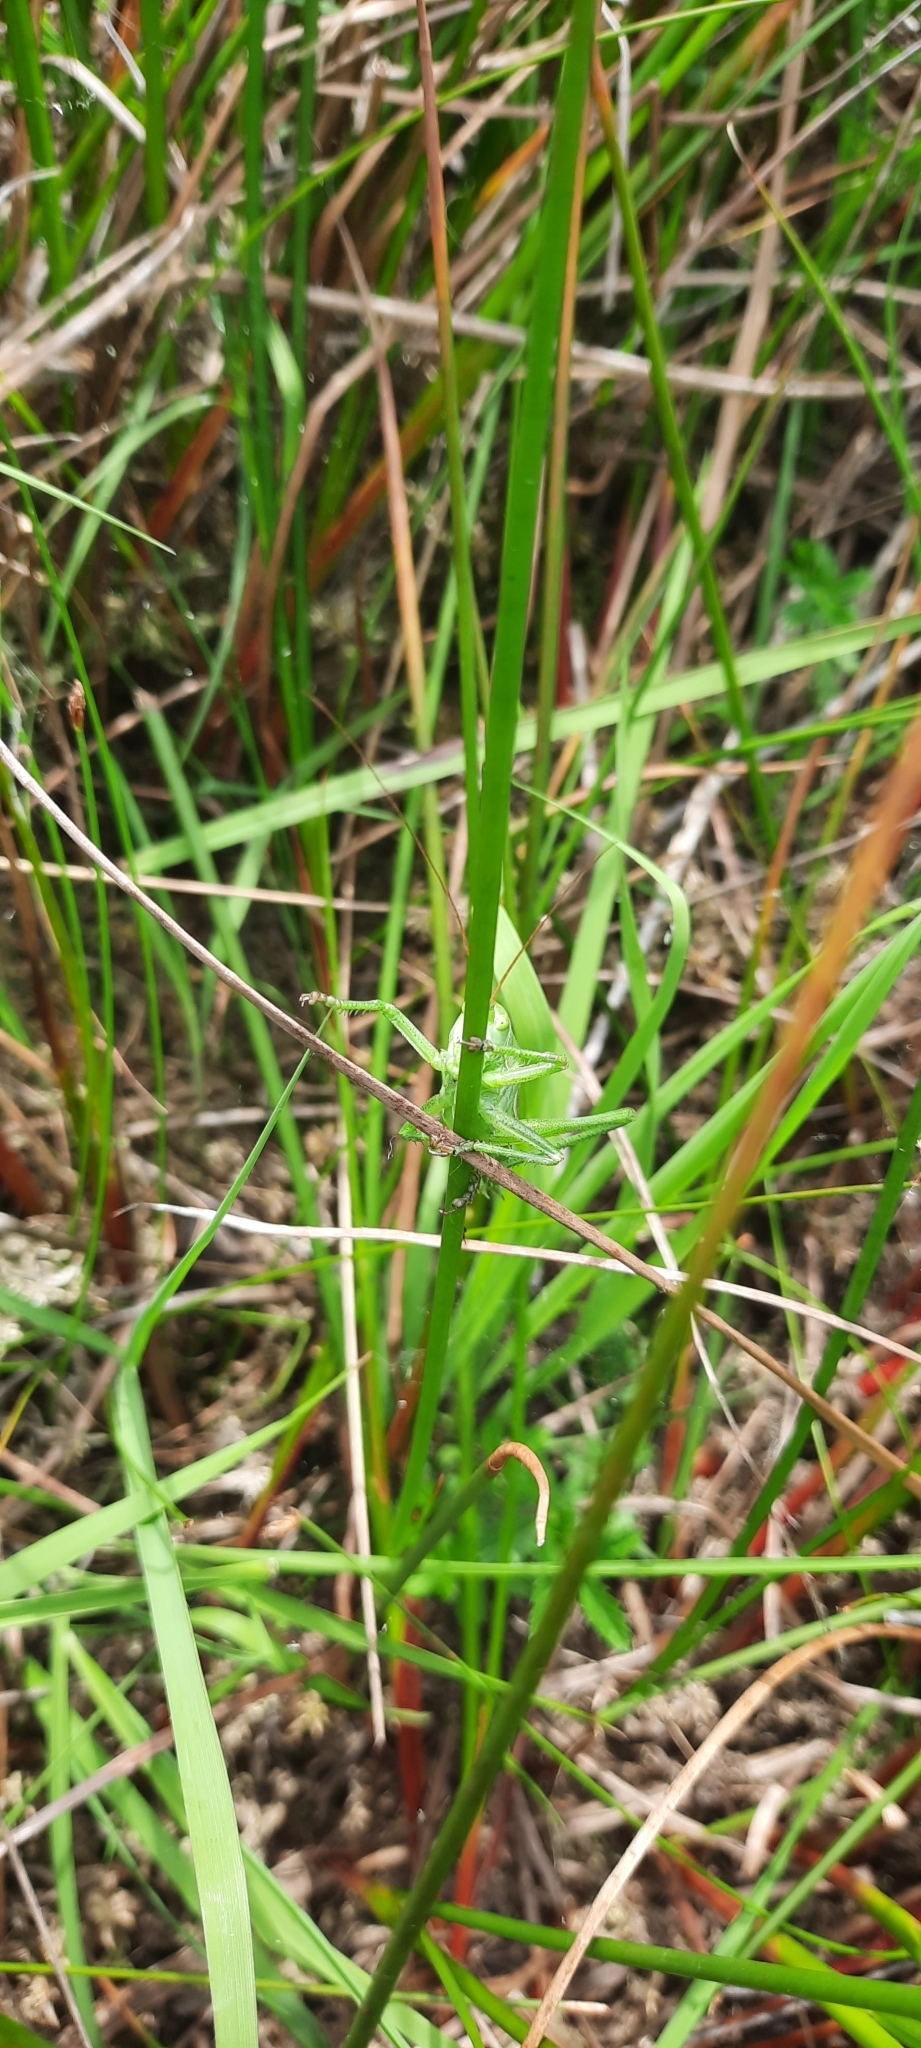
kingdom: Animalia
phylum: Arthropoda
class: Insecta
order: Orthoptera
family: Tettigoniidae
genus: Tettigonia
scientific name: Tettigonia viridissima
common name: Great green bush-cricket
